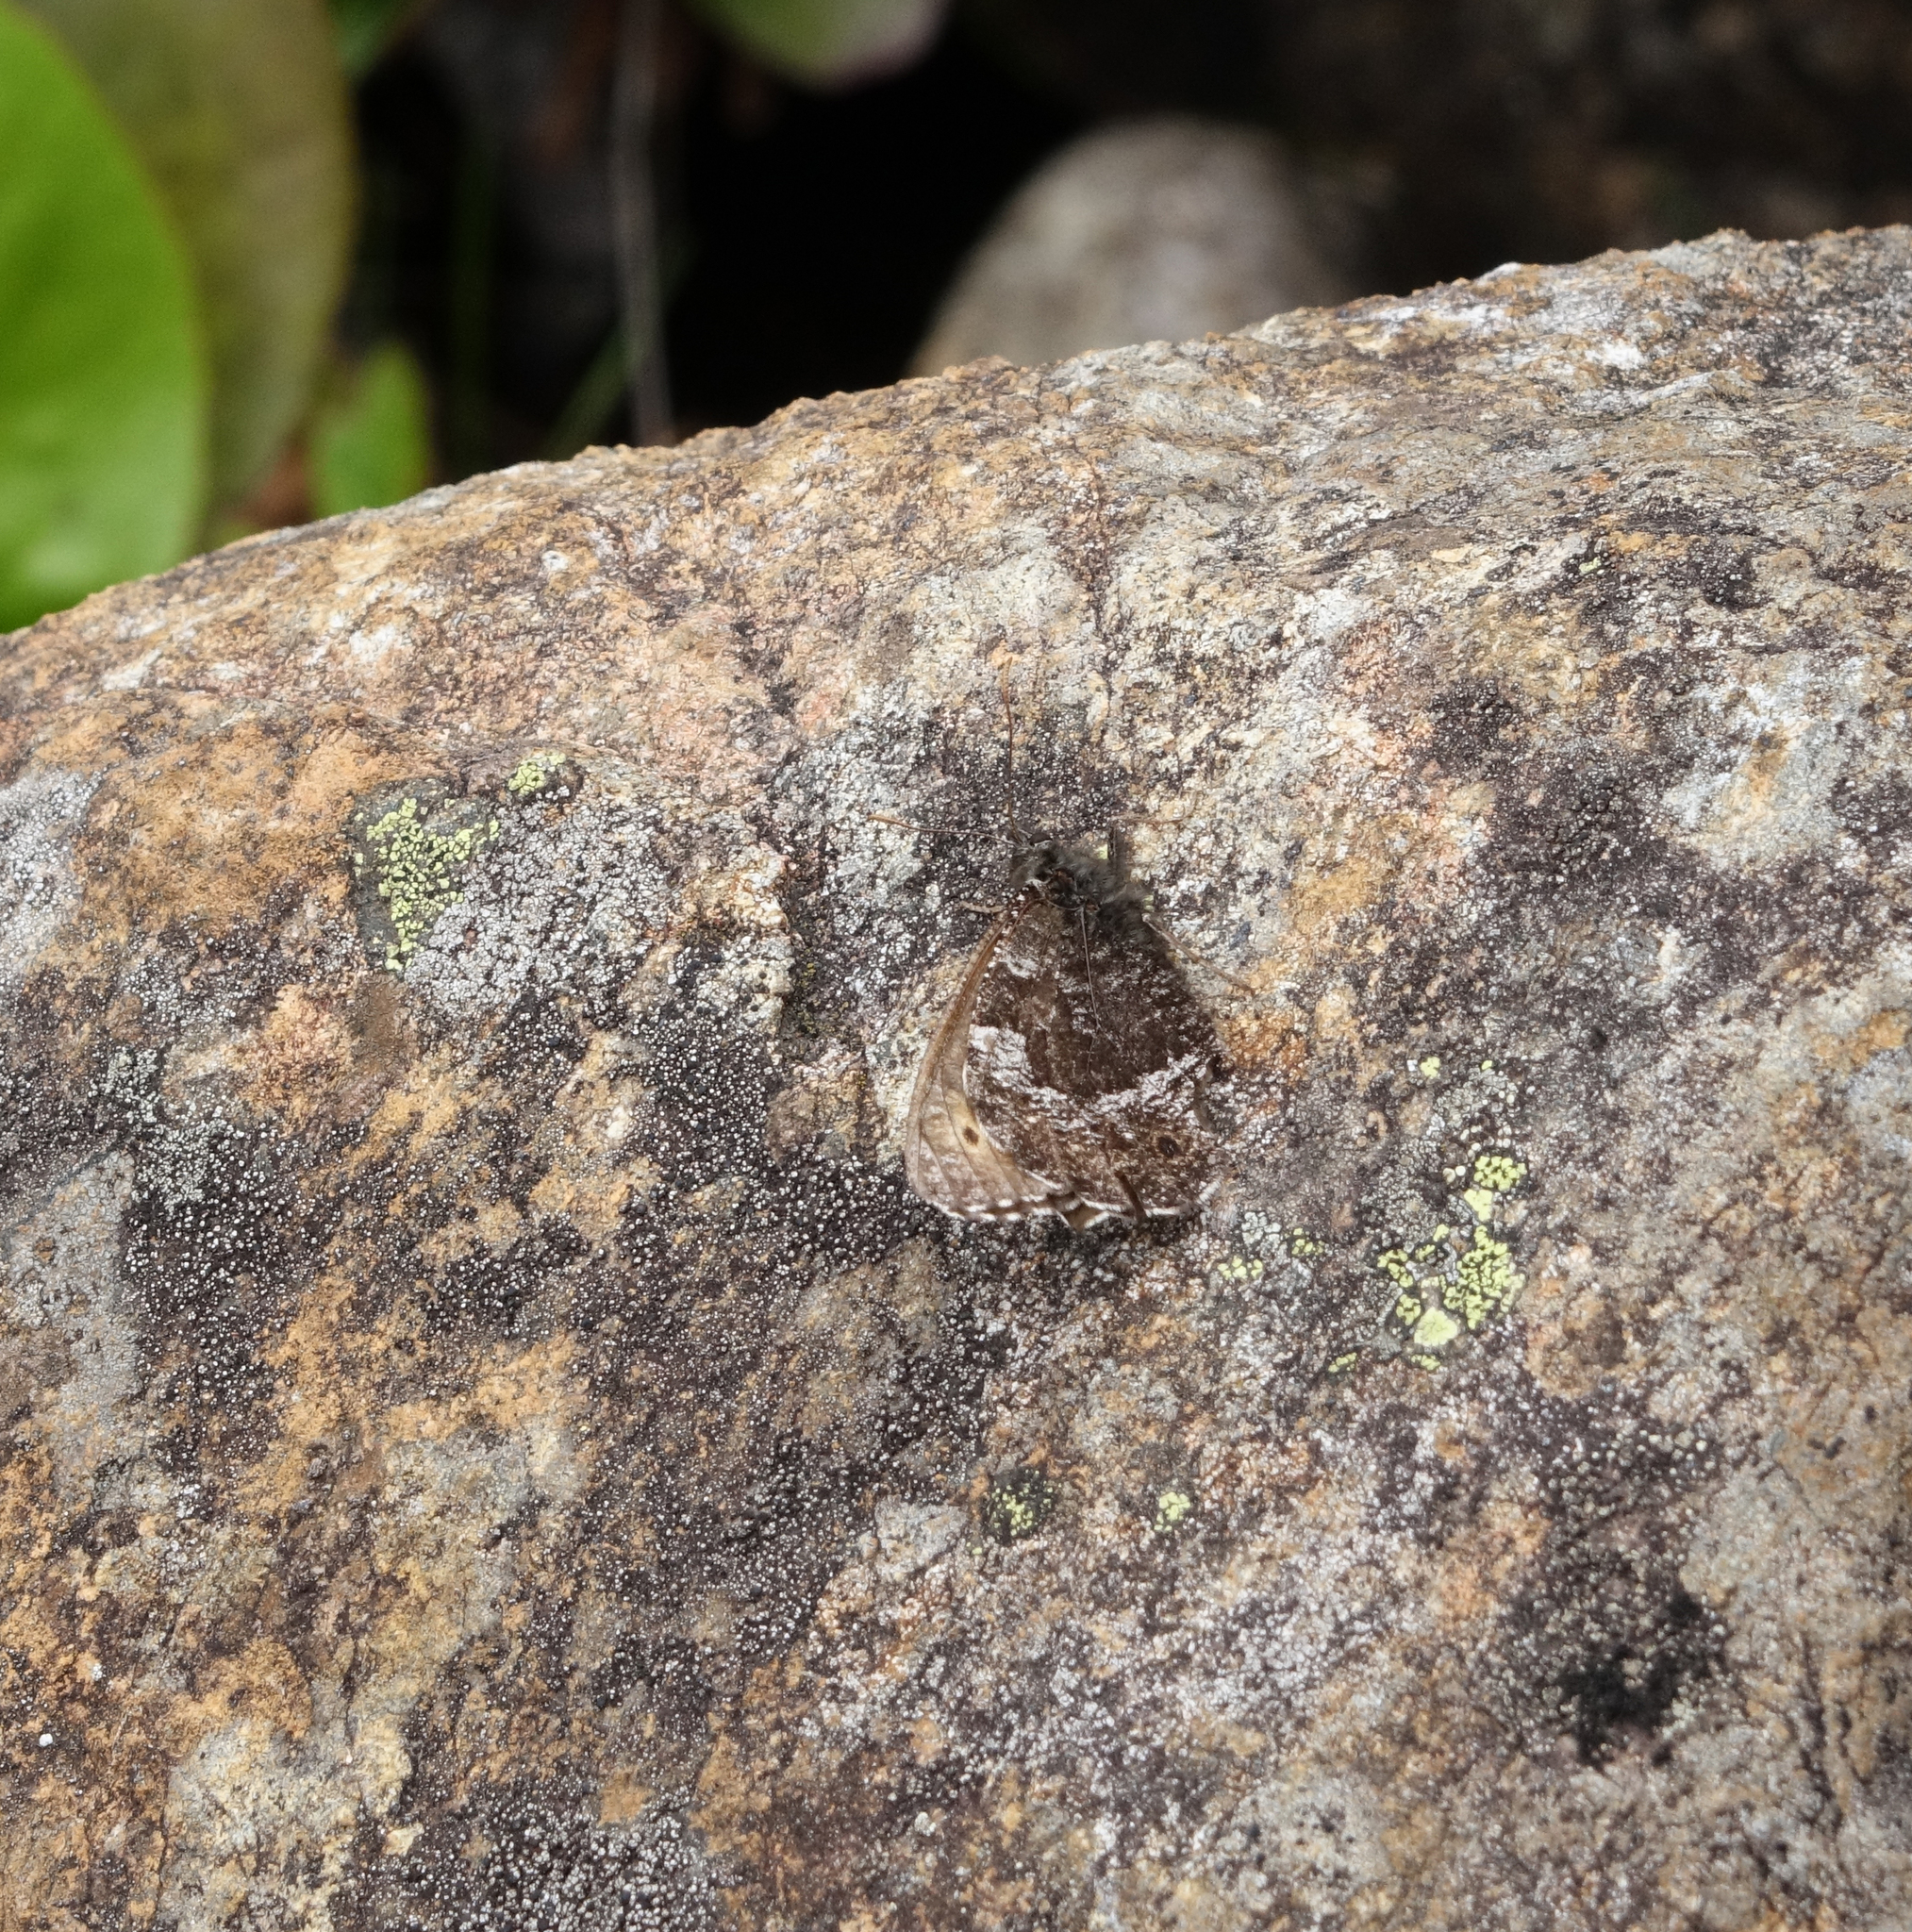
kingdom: Animalia
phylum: Arthropoda
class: Insecta
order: Lepidoptera
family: Nymphalidae
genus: Oeneis
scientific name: Oeneis norna
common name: Norse grayling
